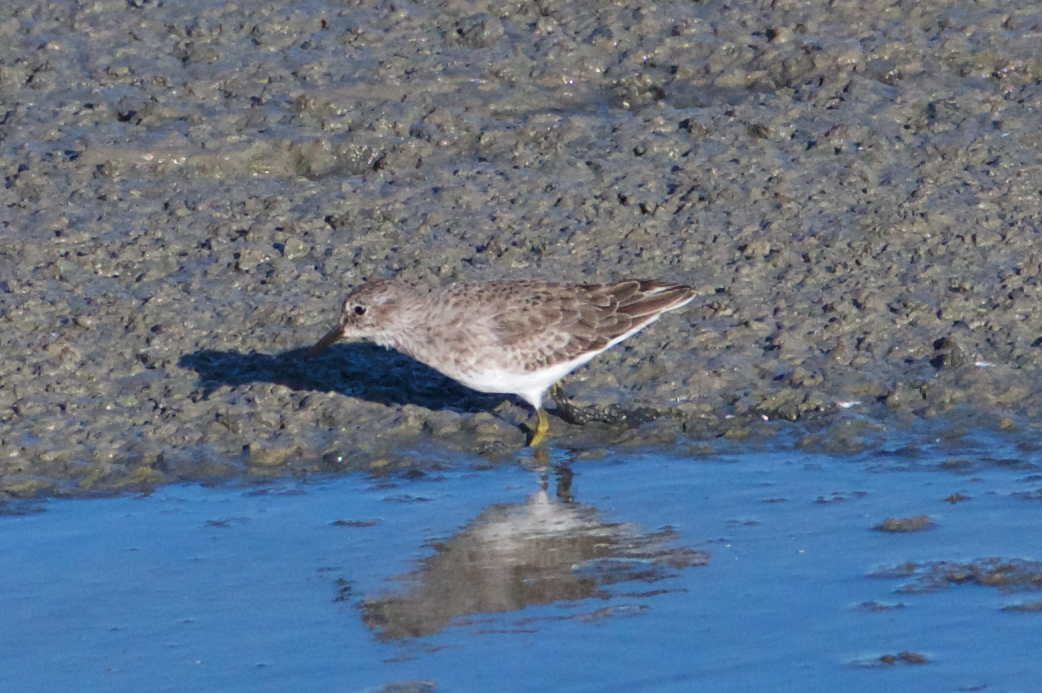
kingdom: Animalia
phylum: Chordata
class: Aves
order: Charadriiformes
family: Scolopacidae
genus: Calidris
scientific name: Calidris minutilla
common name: Least sandpiper
